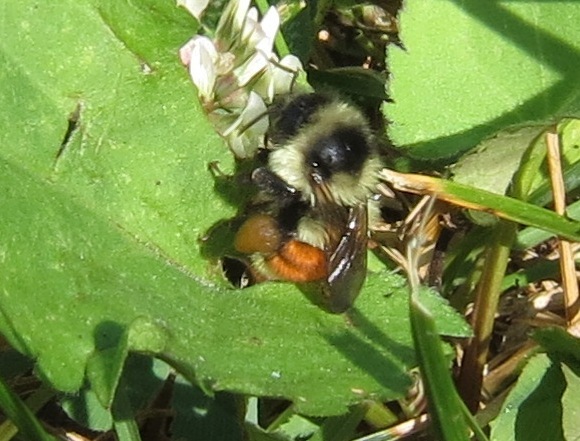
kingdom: Animalia
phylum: Arthropoda
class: Insecta
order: Hymenoptera
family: Apidae
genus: Bombus
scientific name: Bombus ternarius
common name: Tri-colored bumble bee
